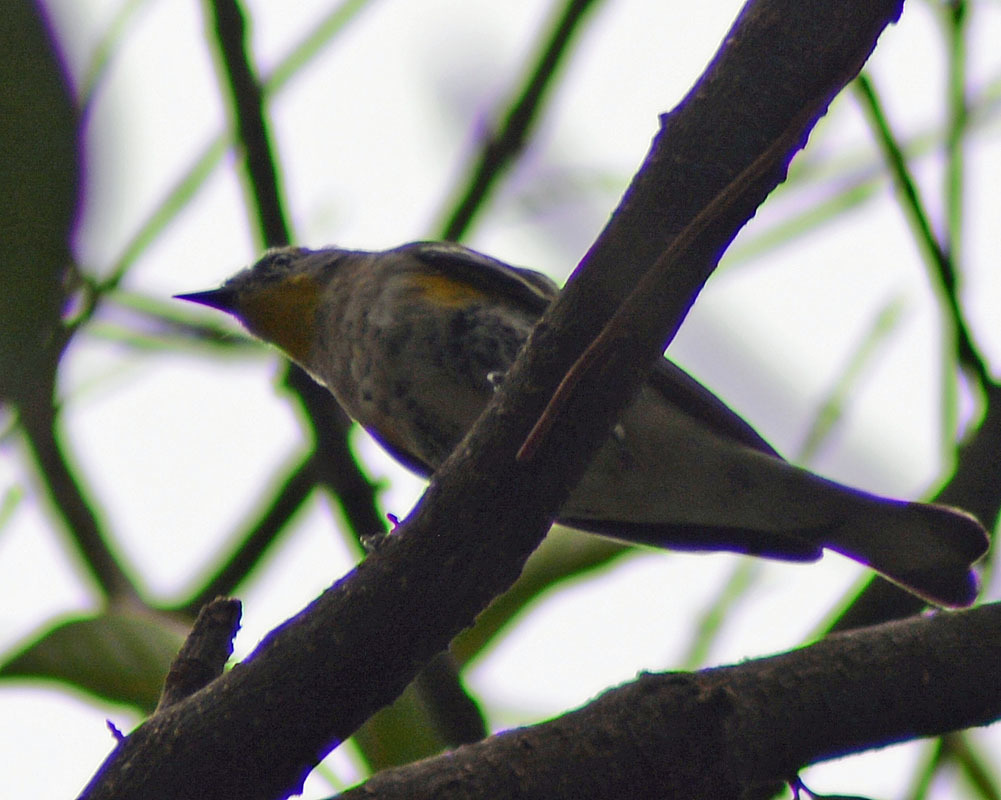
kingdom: Animalia
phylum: Chordata
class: Aves
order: Passeriformes
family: Parulidae
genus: Setophaga
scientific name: Setophaga auduboni
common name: Audubon's warbler
